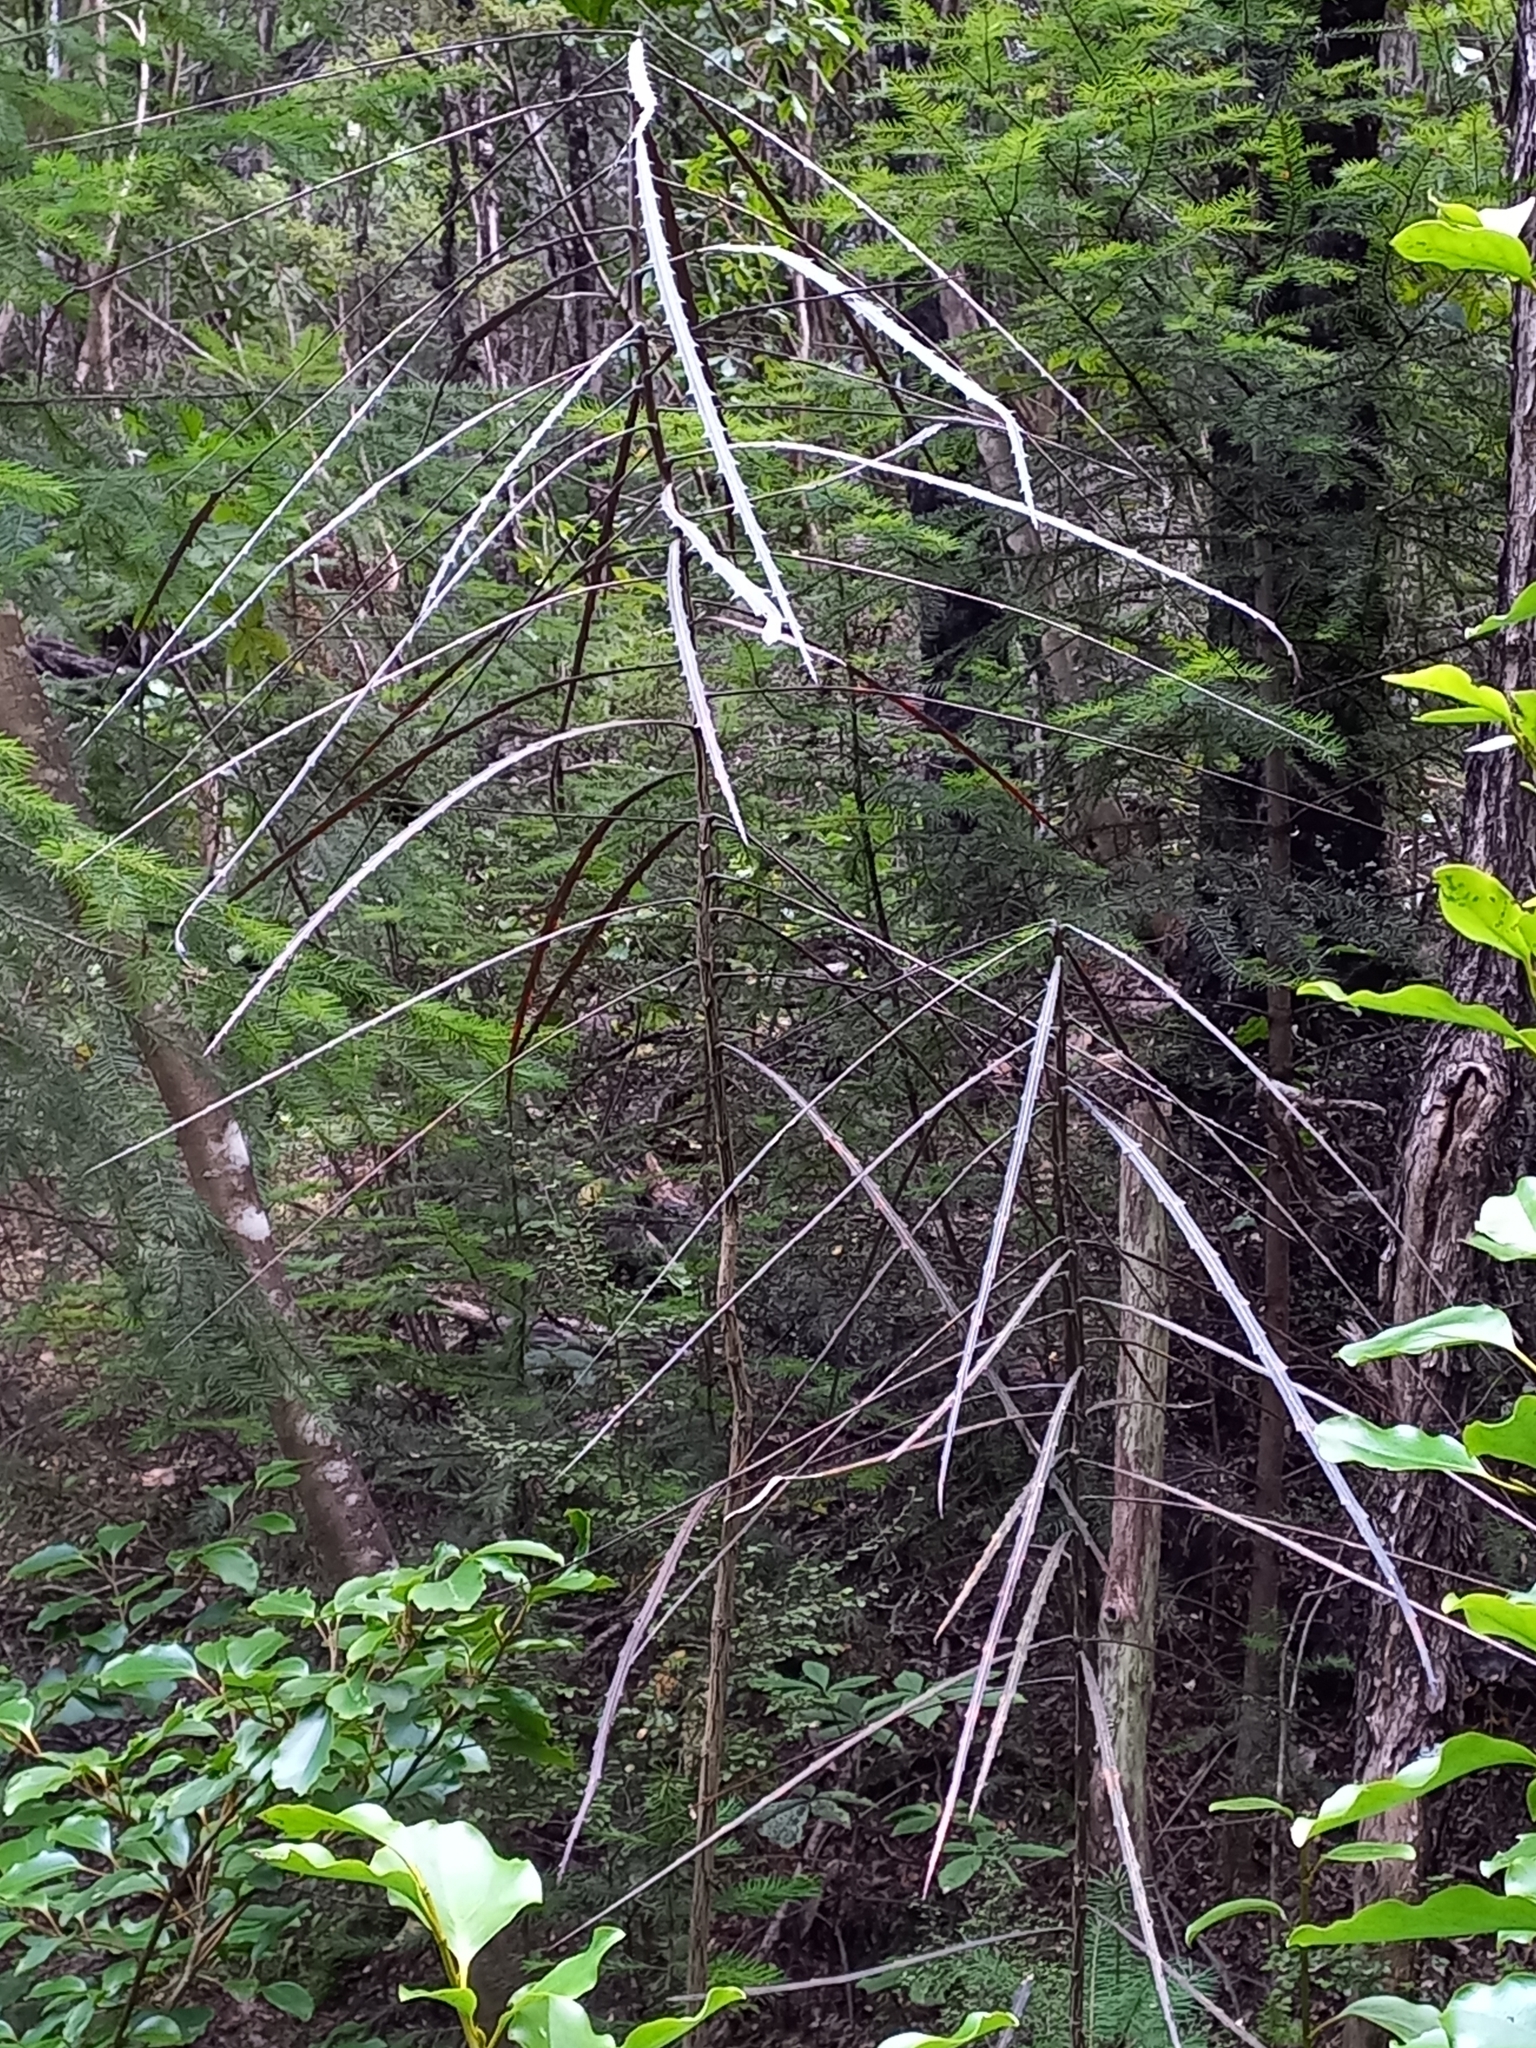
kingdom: Plantae
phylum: Tracheophyta
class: Magnoliopsida
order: Apiales
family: Araliaceae
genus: Pseudopanax
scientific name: Pseudopanax crassifolius
